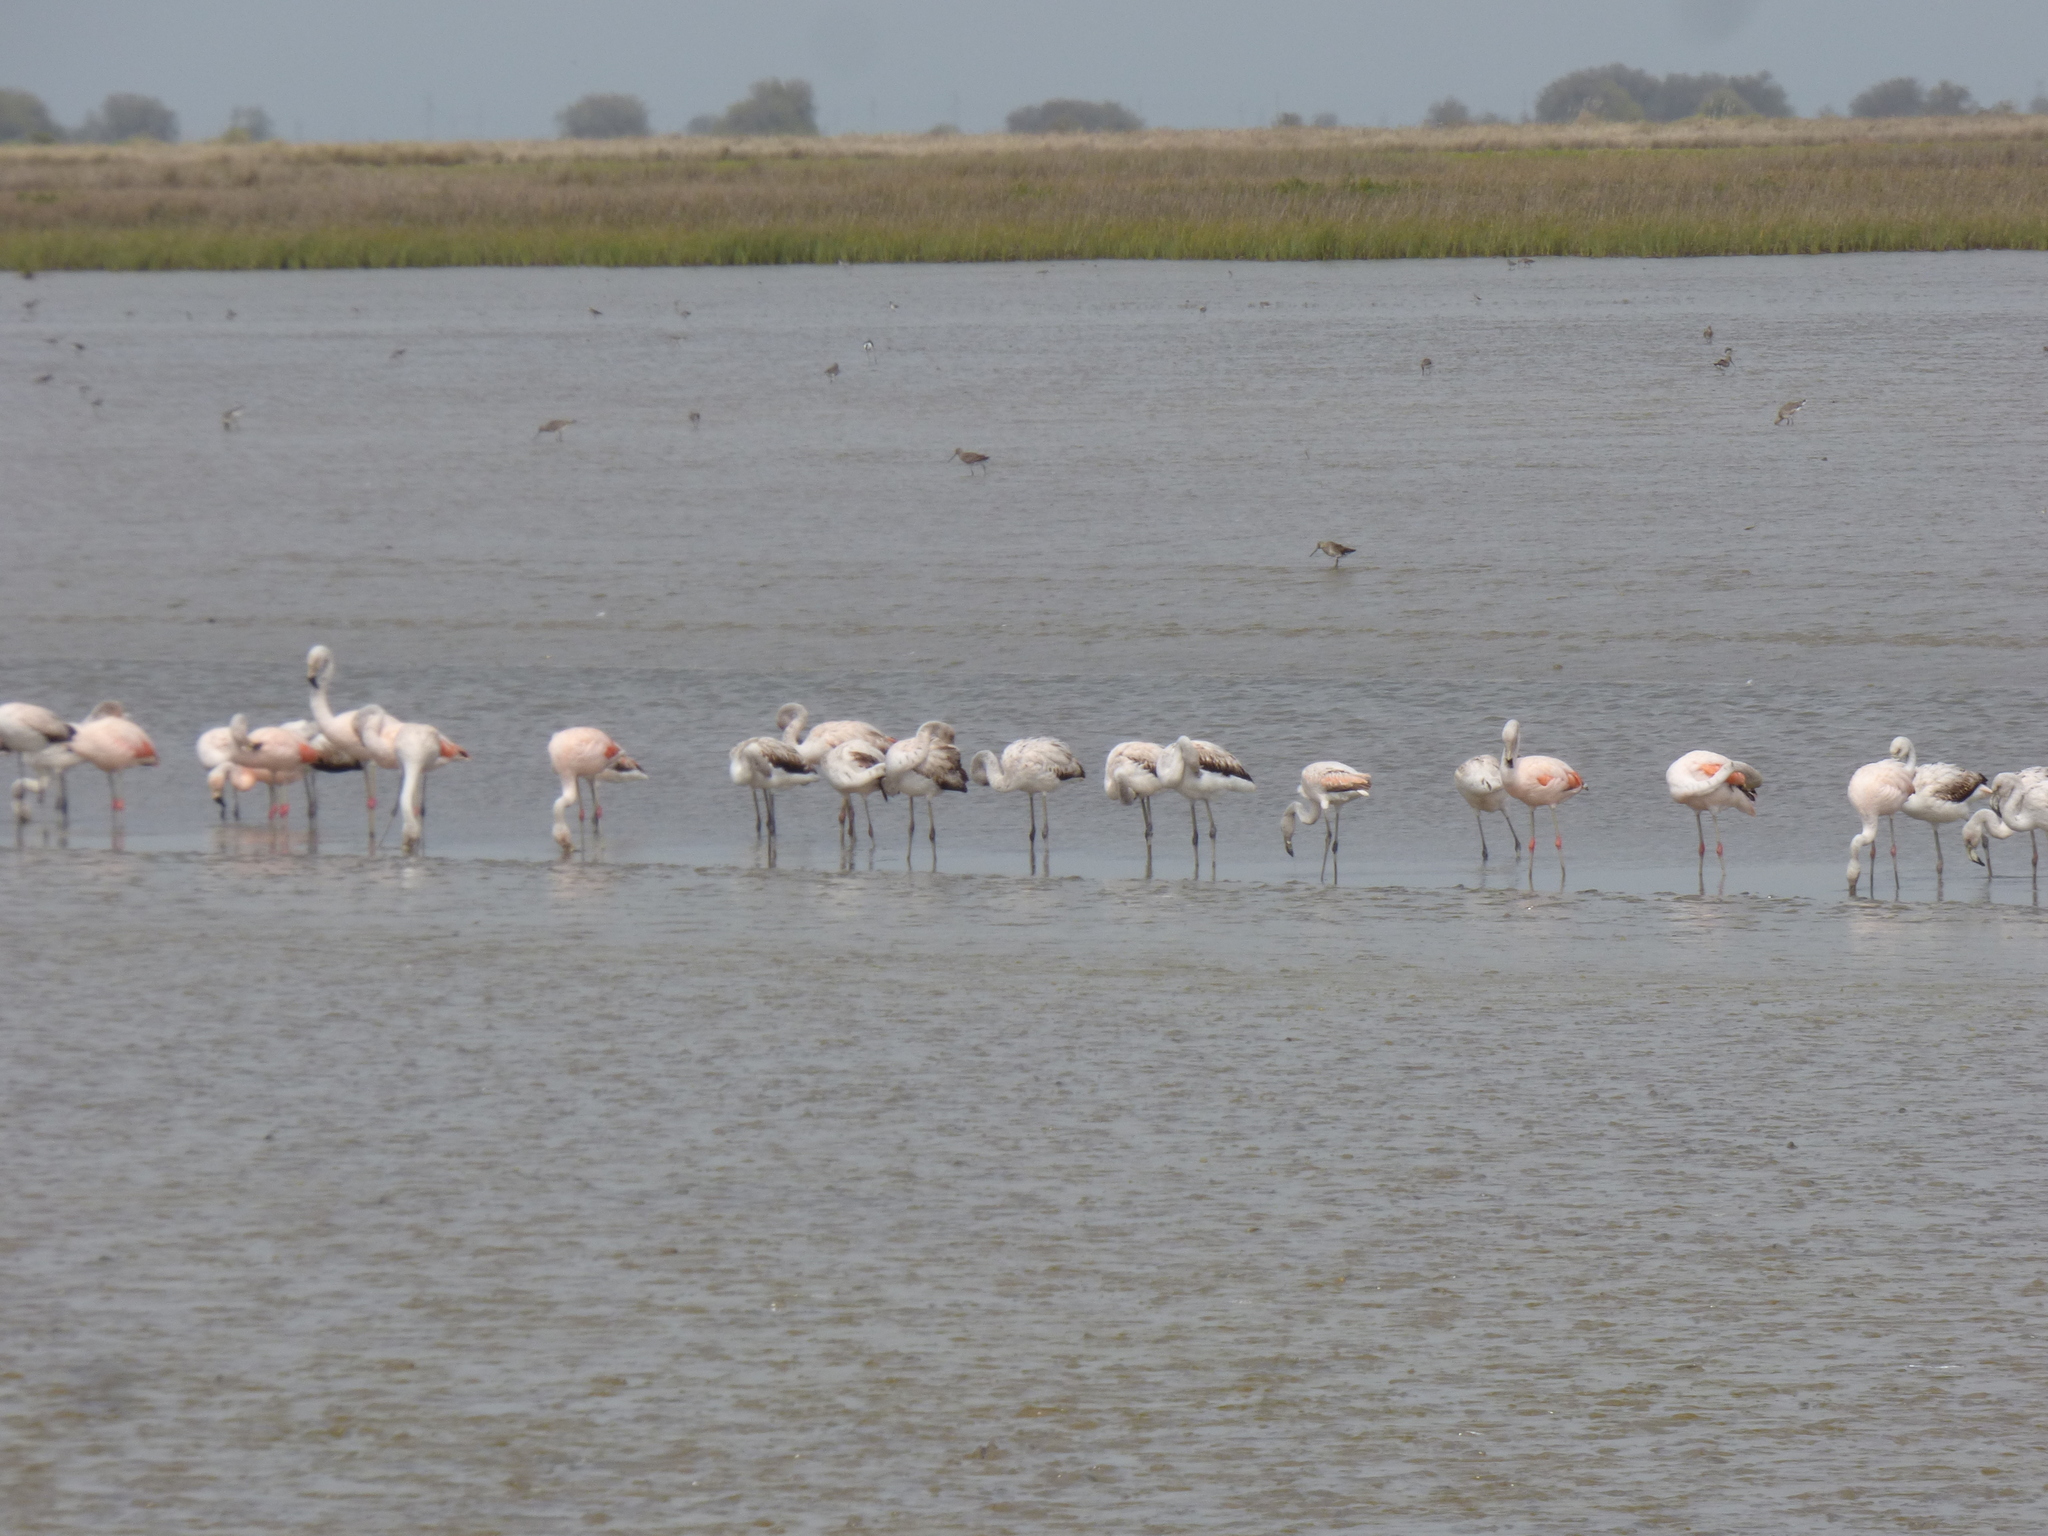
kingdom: Animalia
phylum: Chordata
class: Aves
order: Phoenicopteriformes
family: Phoenicopteridae
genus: Phoenicopterus
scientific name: Phoenicopterus chilensis
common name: Chilean flamingo
